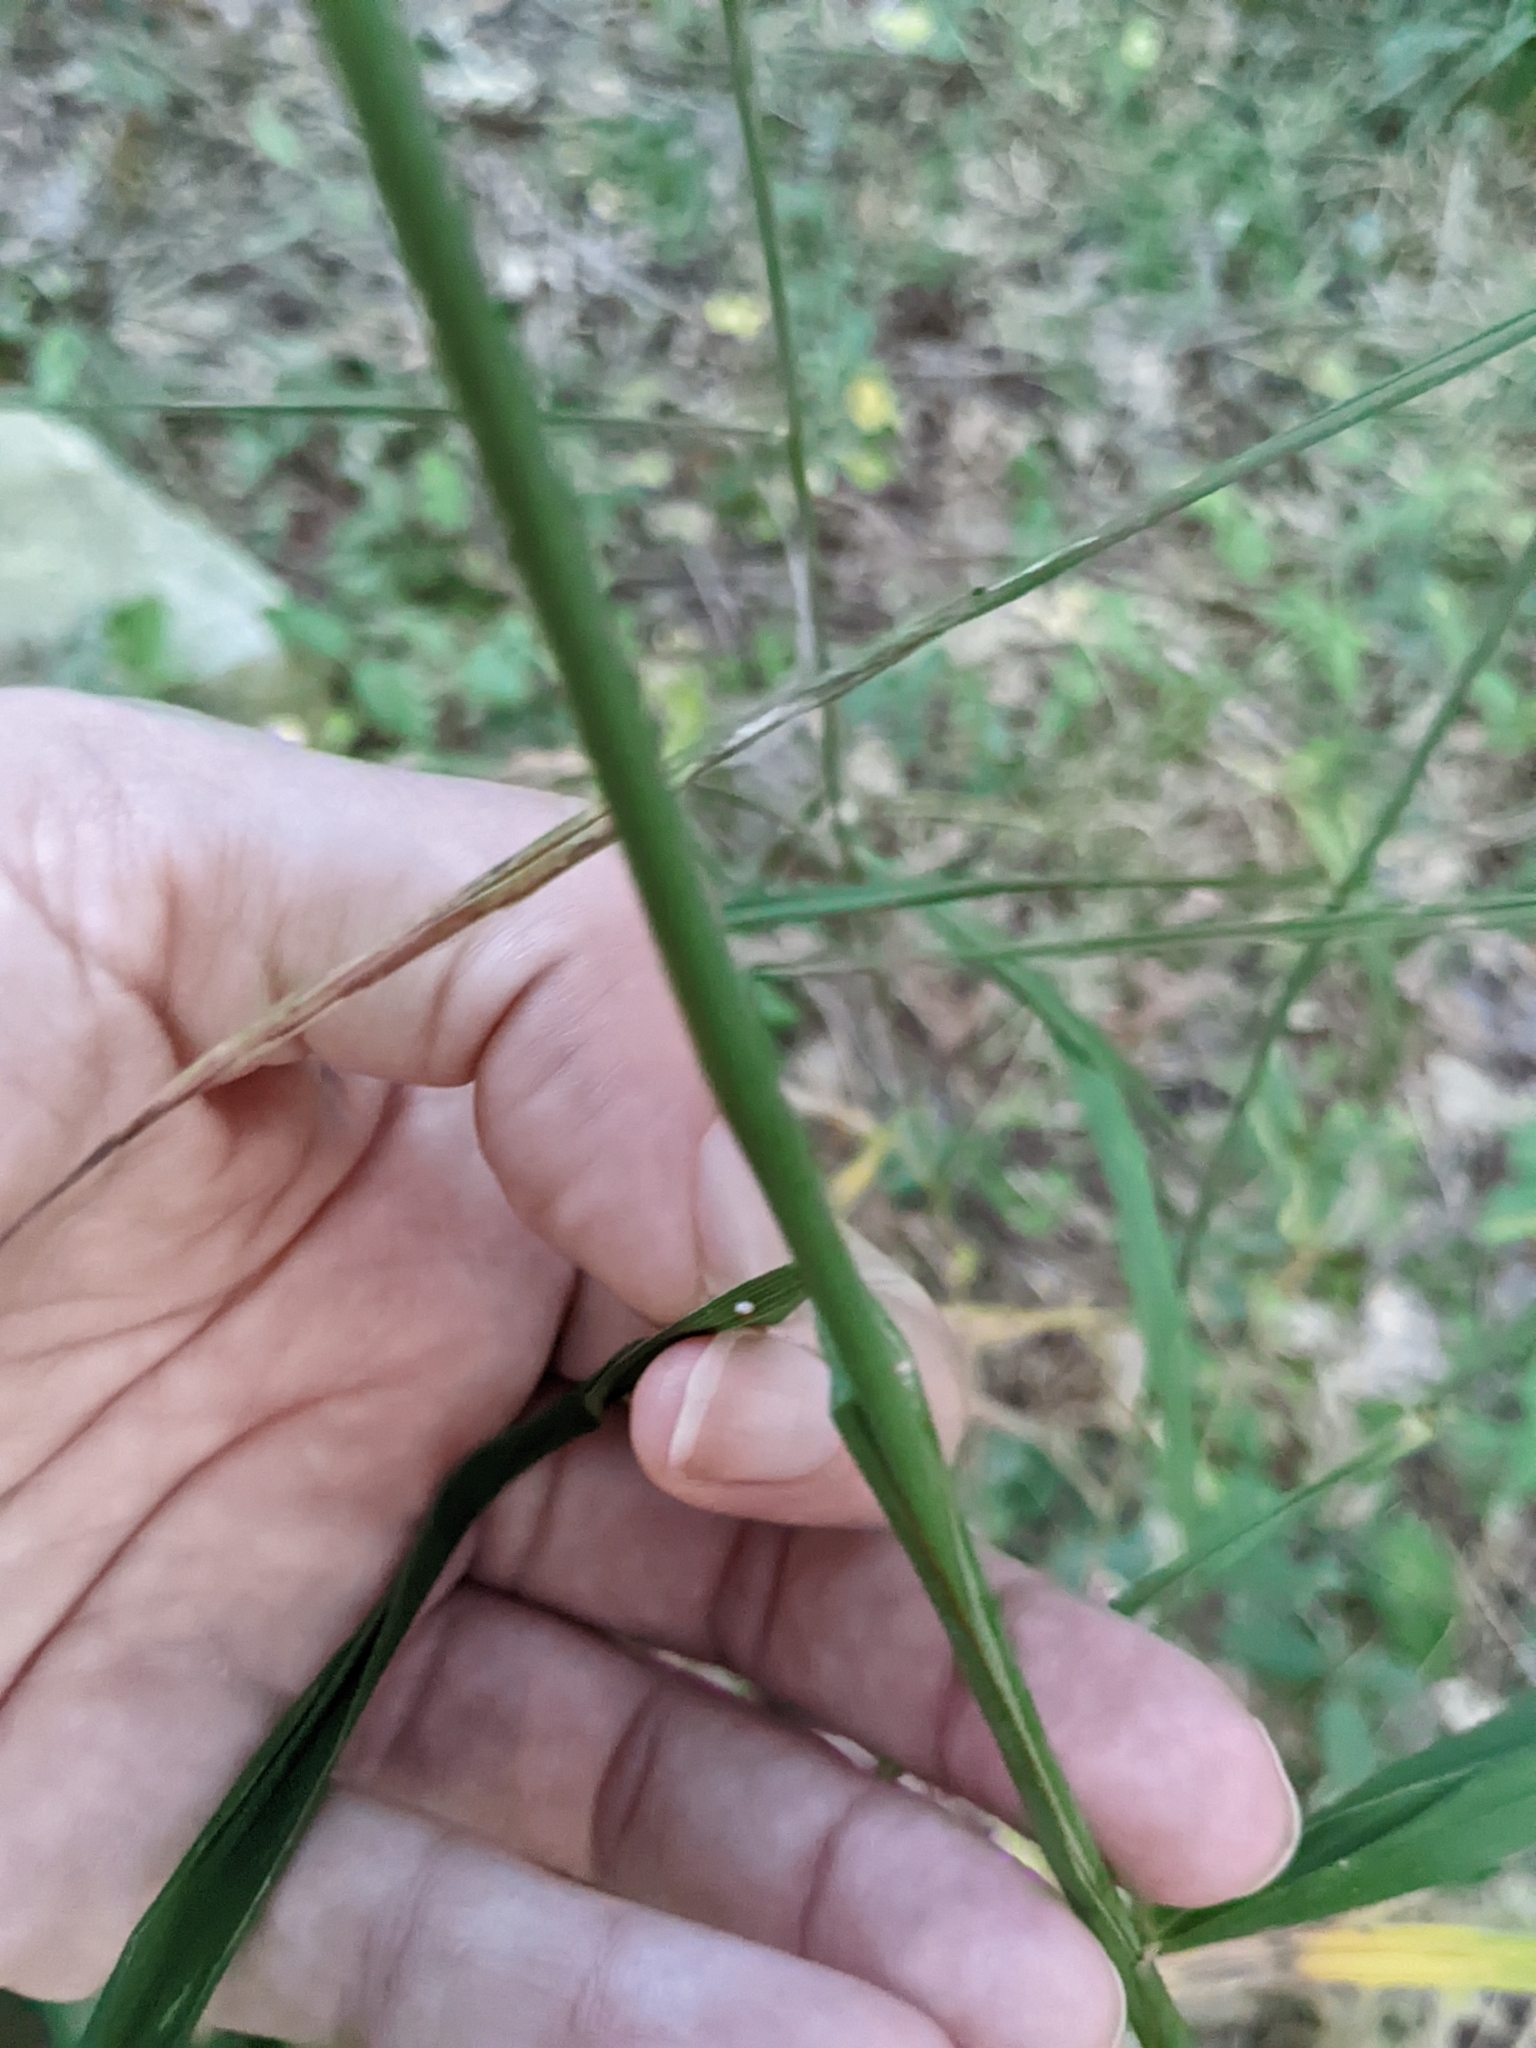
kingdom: Plantae
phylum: Tracheophyta
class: Liliopsida
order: Poales
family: Poaceae
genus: Cinna
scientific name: Cinna arundinacea
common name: Stout woodreed
